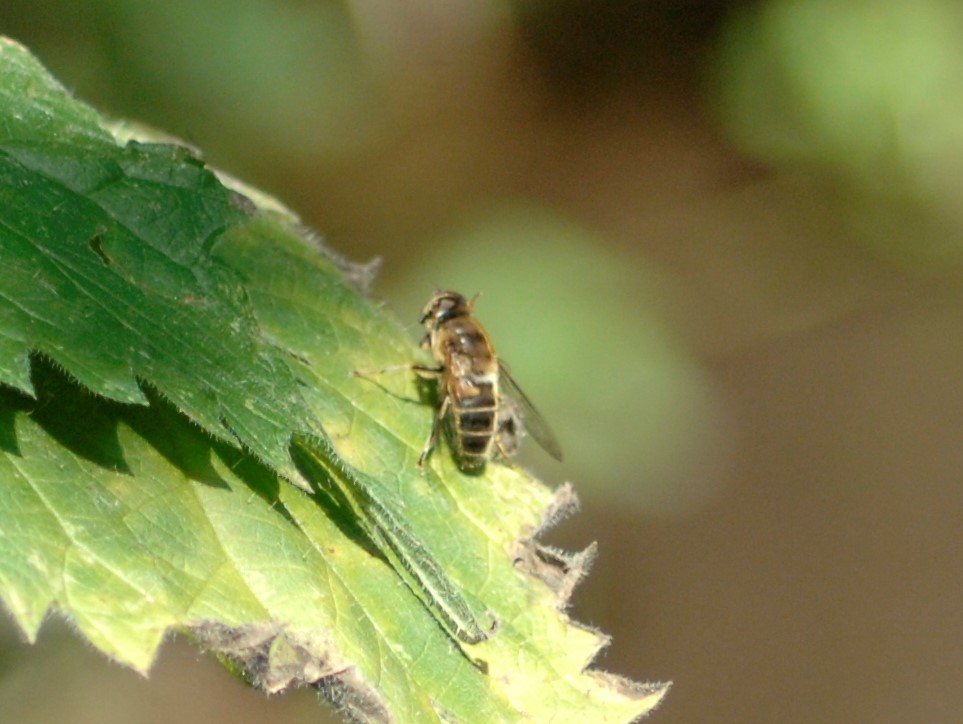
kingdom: Animalia
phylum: Arthropoda
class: Insecta
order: Diptera
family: Syrphidae
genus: Eristalis
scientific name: Eristalis pertinax
